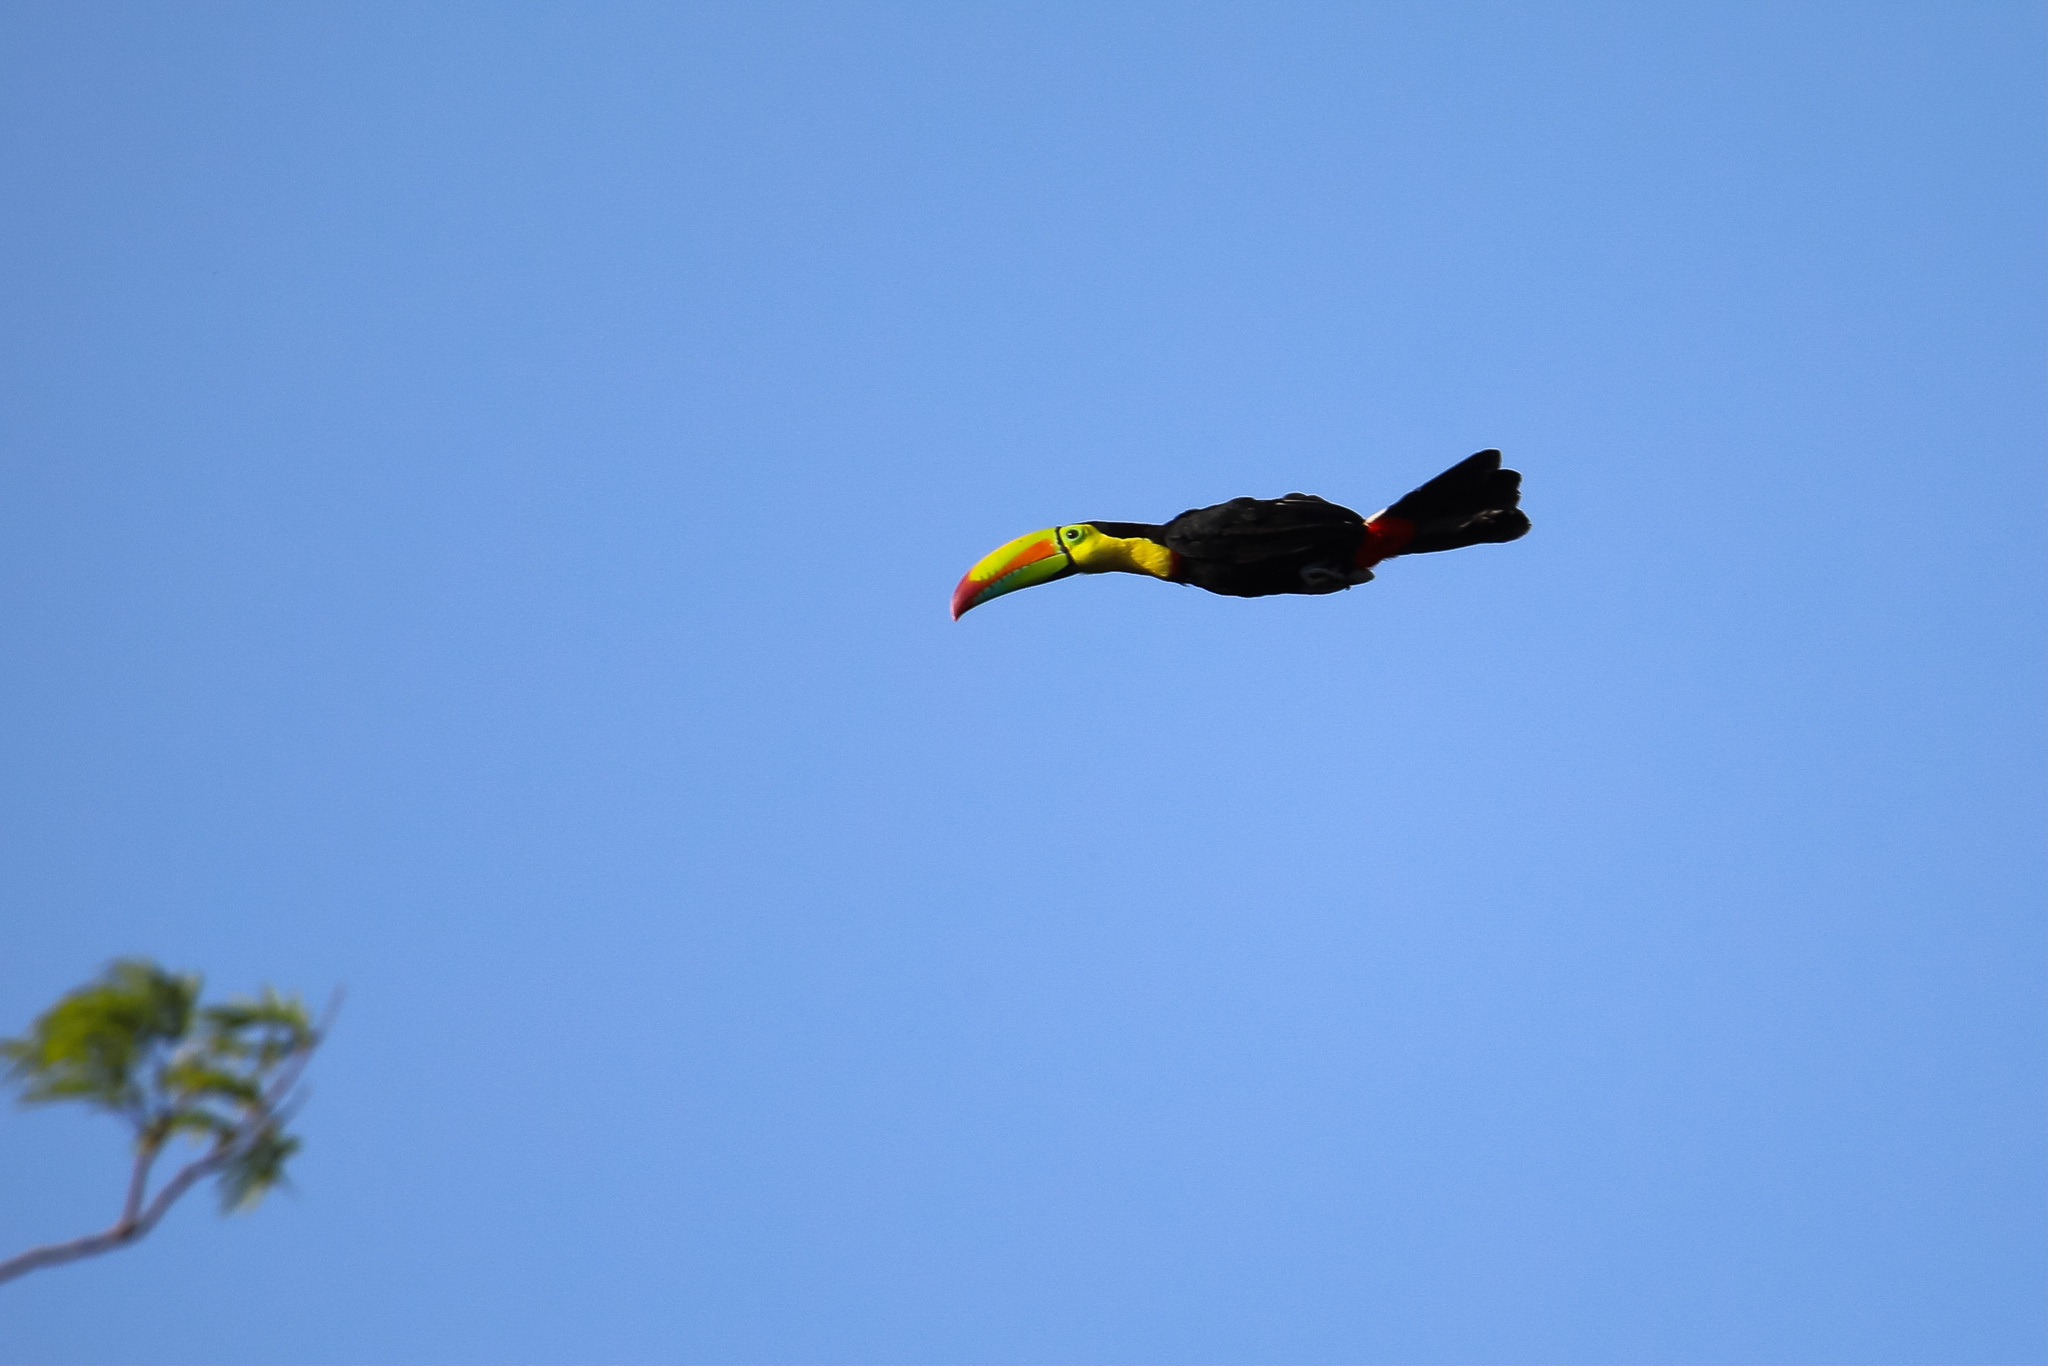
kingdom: Animalia
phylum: Chordata
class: Aves
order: Piciformes
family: Ramphastidae
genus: Ramphastos
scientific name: Ramphastos sulfuratus
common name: Keel-billed toucan
